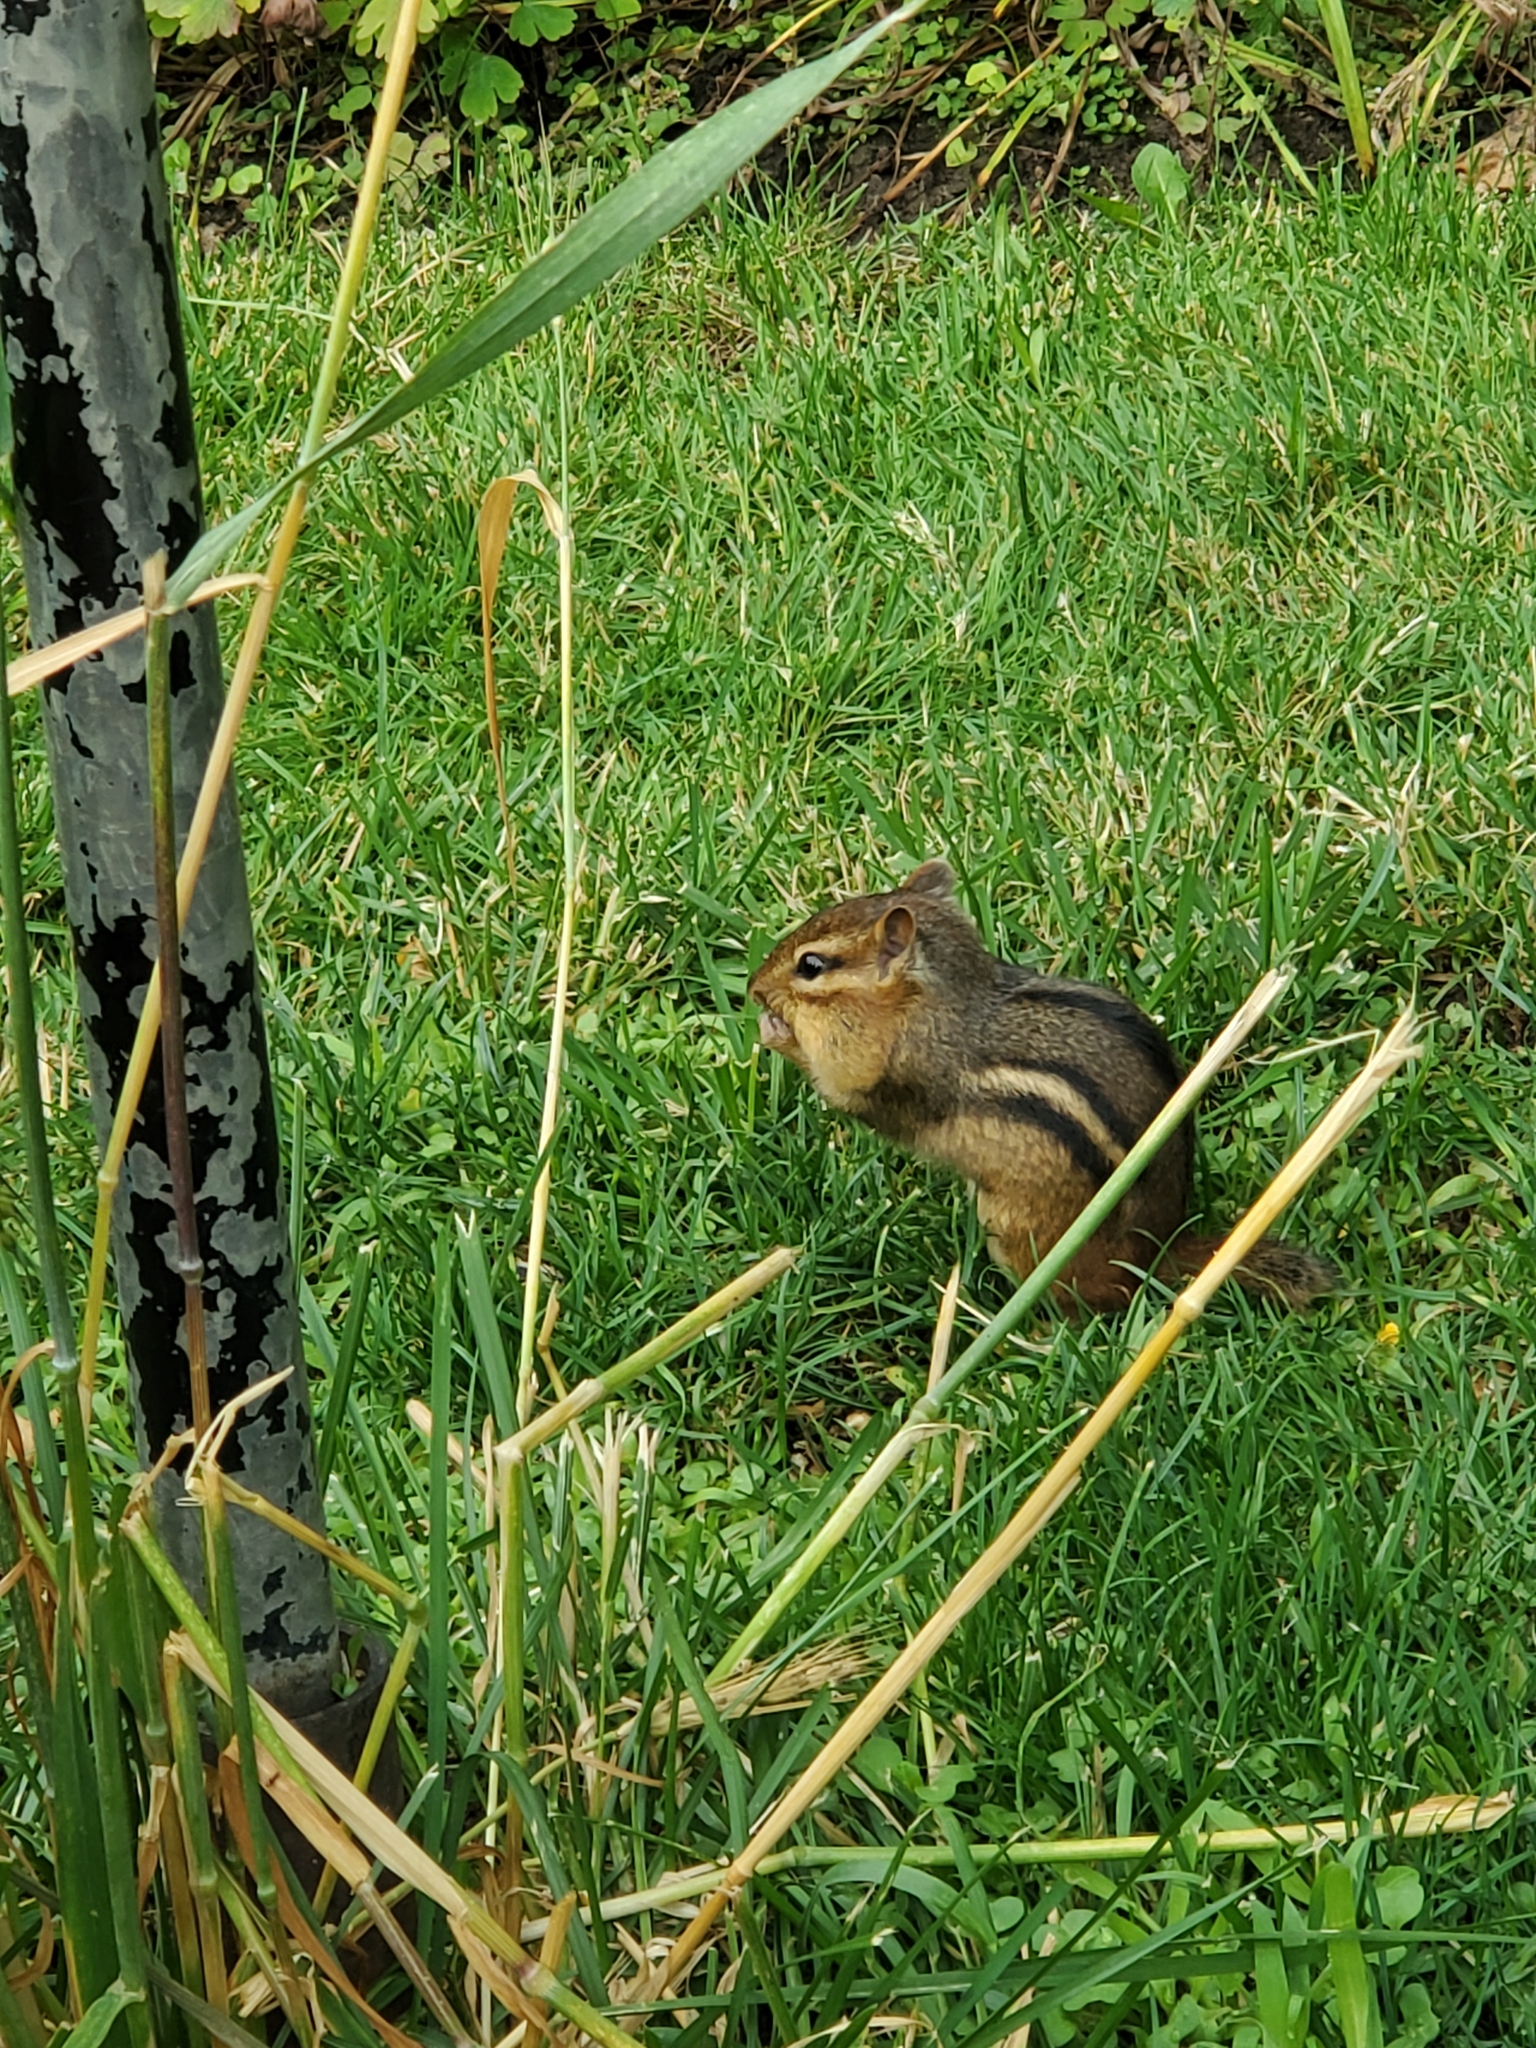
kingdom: Animalia
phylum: Chordata
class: Mammalia
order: Rodentia
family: Sciuridae
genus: Tamias
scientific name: Tamias striatus
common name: Eastern chipmunk
